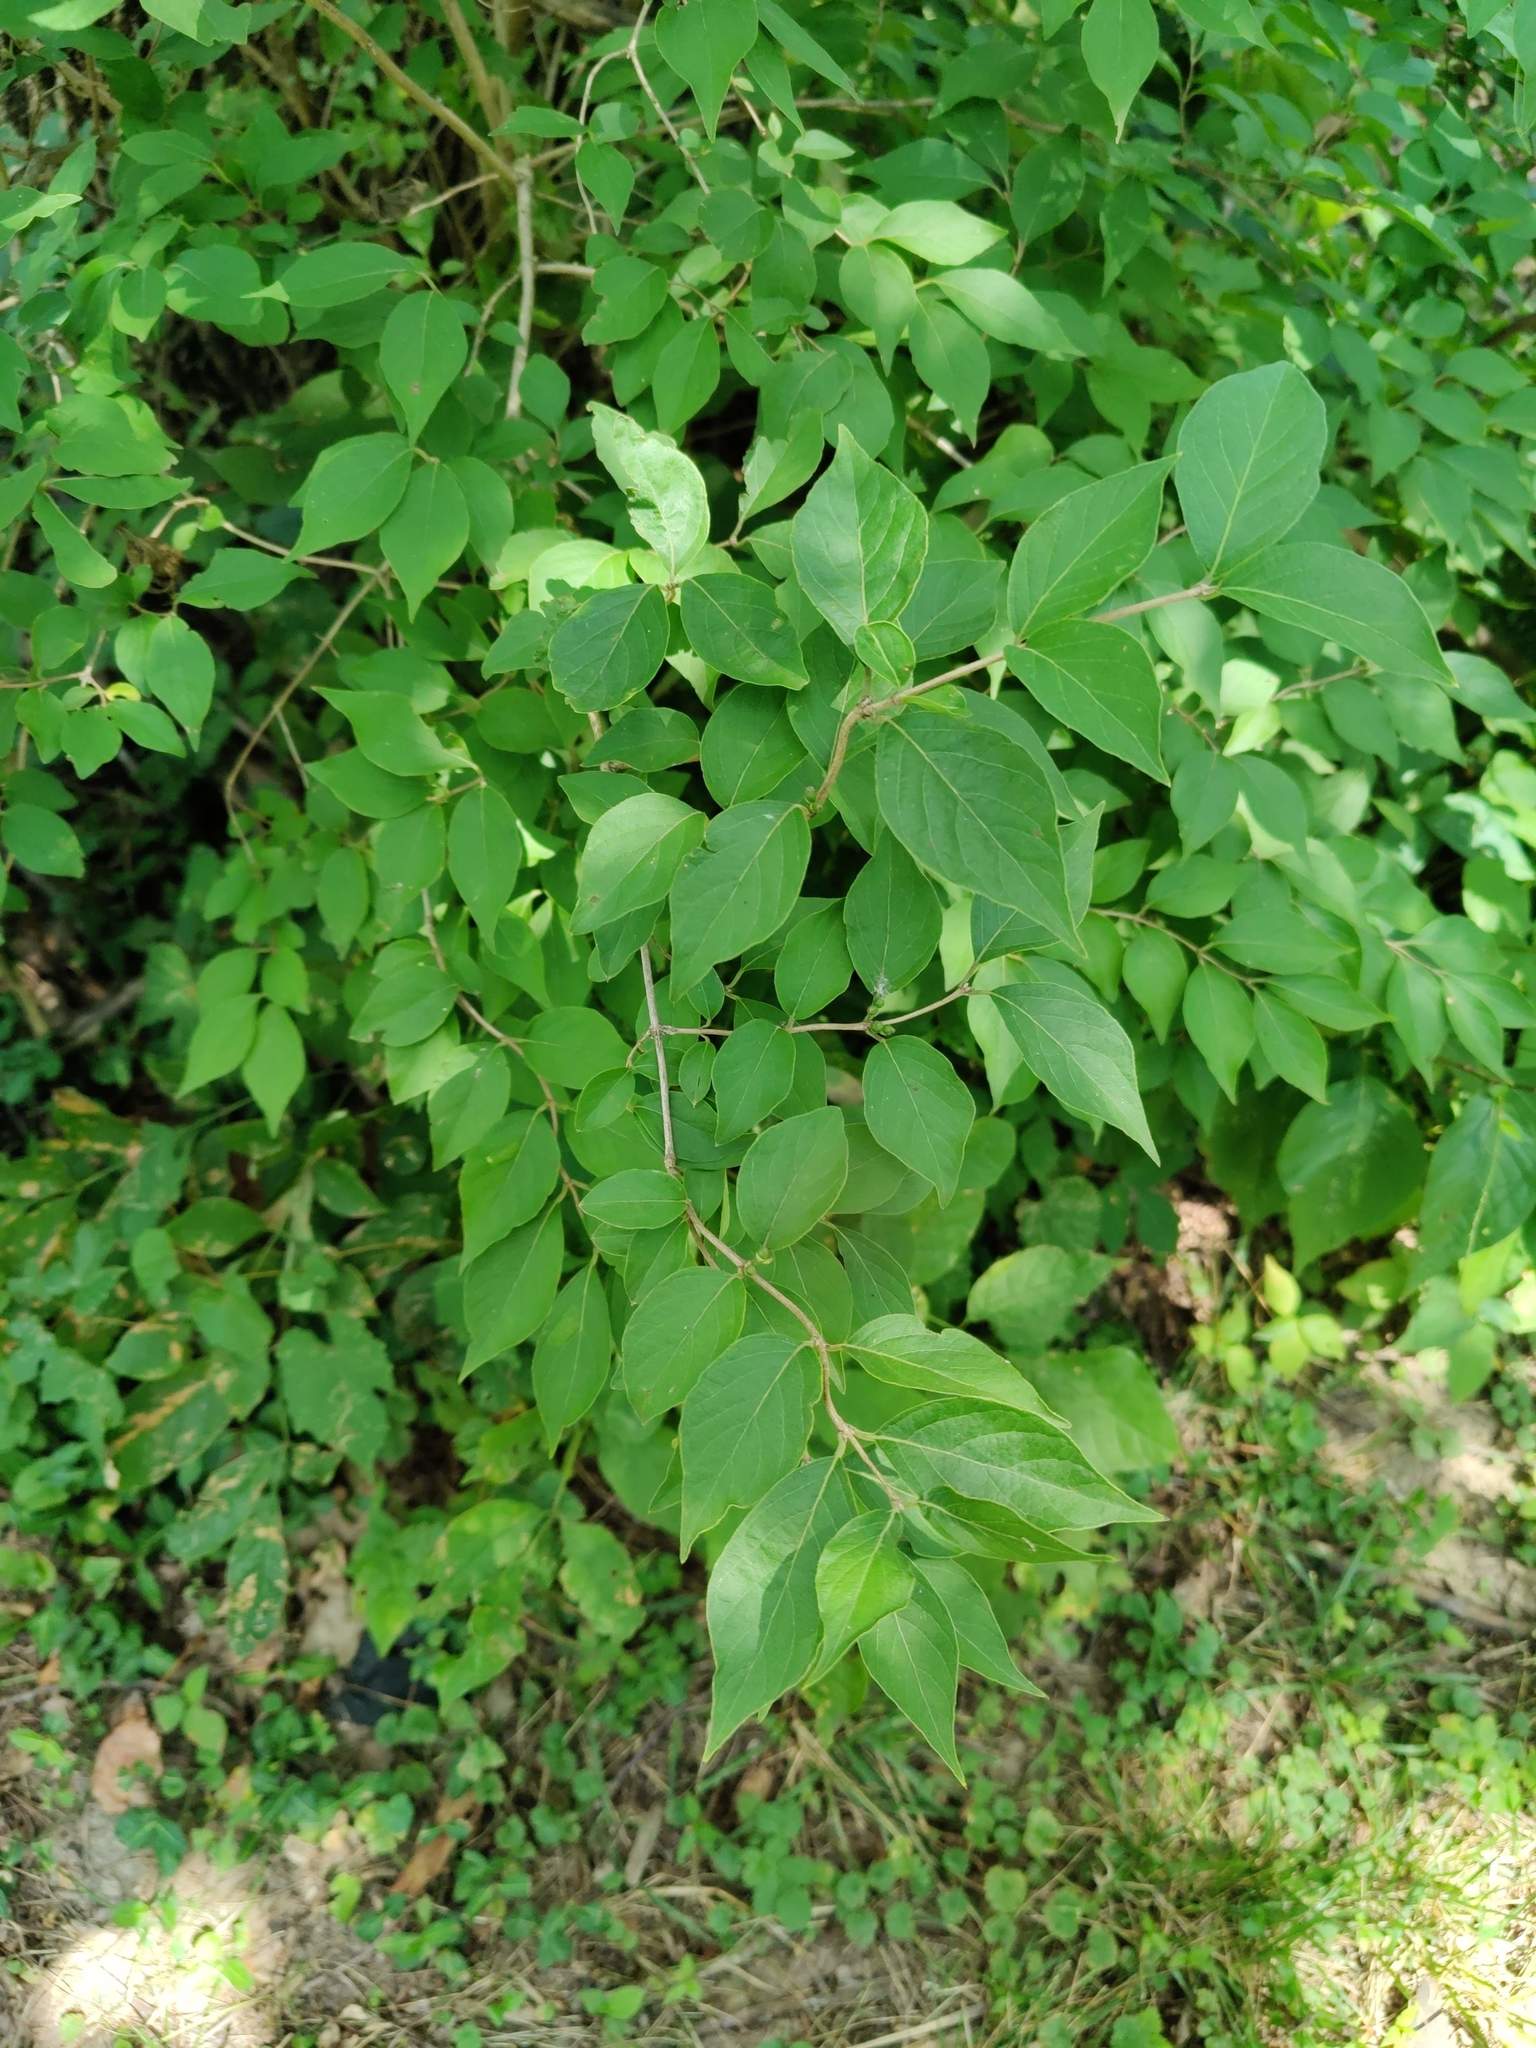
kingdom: Plantae
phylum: Tracheophyta
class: Magnoliopsida
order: Dipsacales
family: Caprifoliaceae
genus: Lonicera
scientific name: Lonicera maackii
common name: Amur honeysuckle
